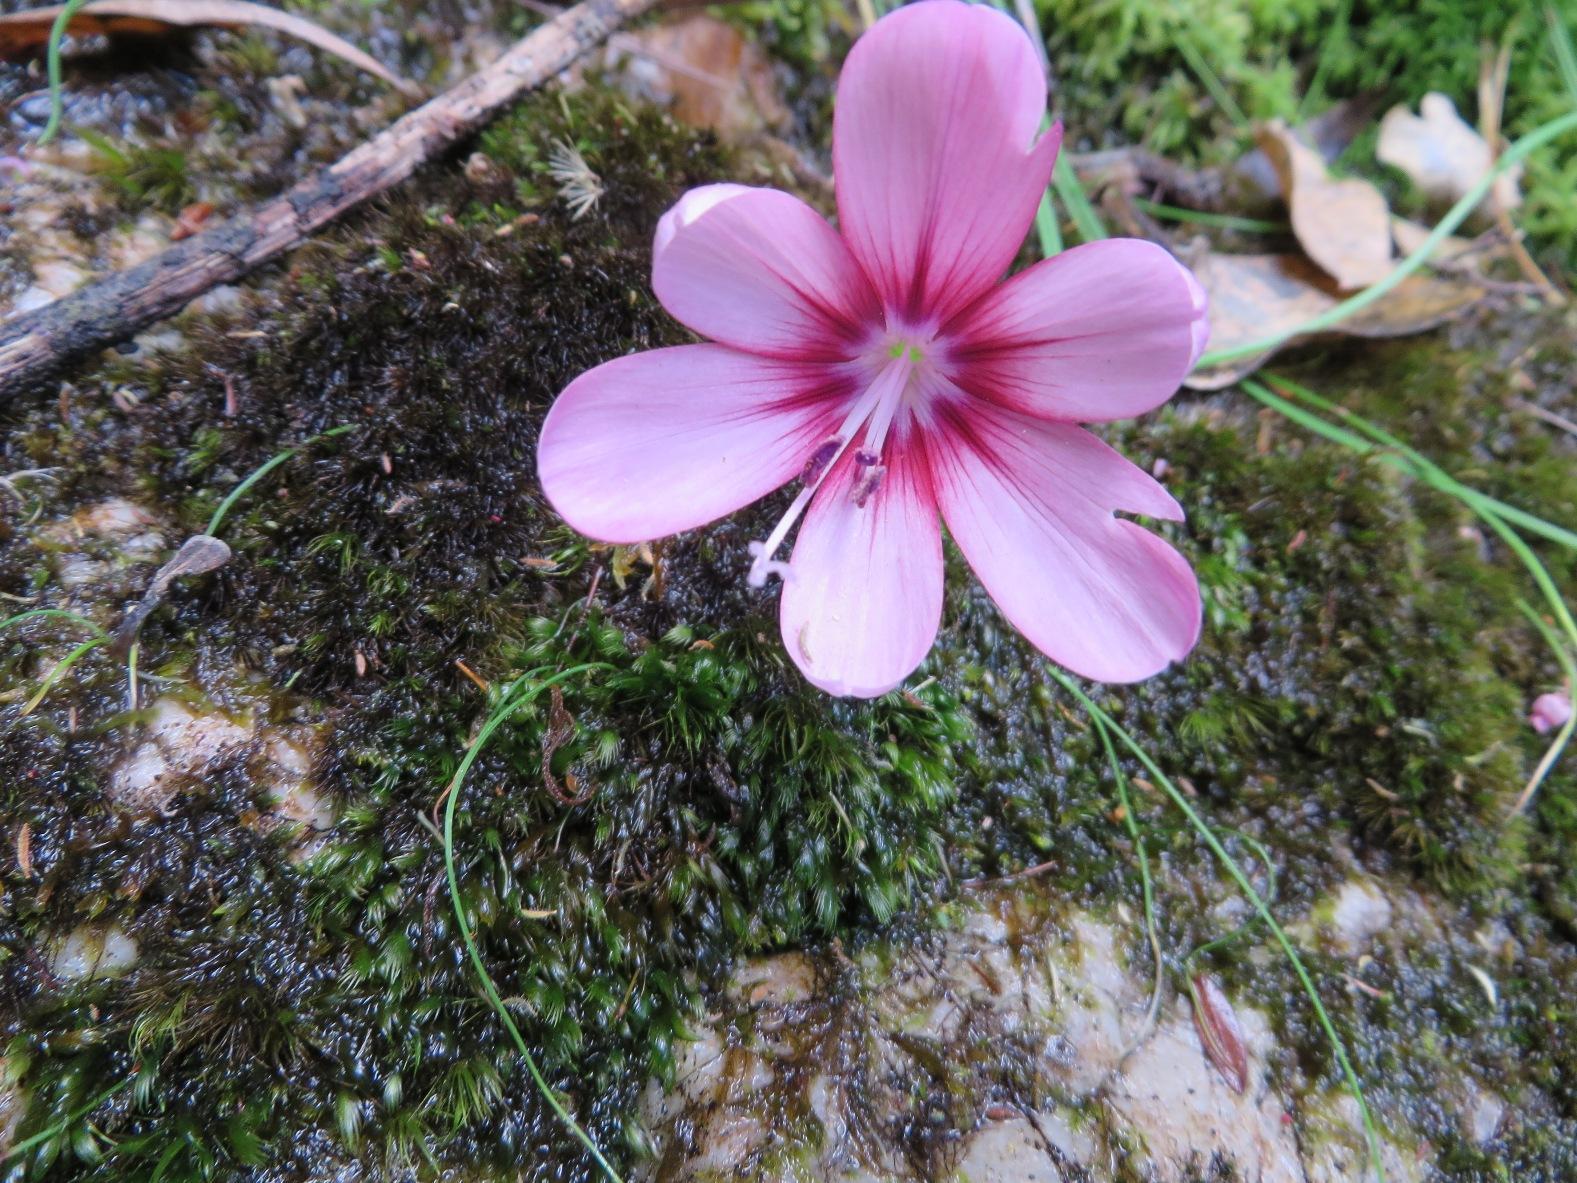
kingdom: Plantae
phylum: Tracheophyta
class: Liliopsida
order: Asparagales
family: Iridaceae
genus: Geissorhiza
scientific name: Geissorhiza callista
